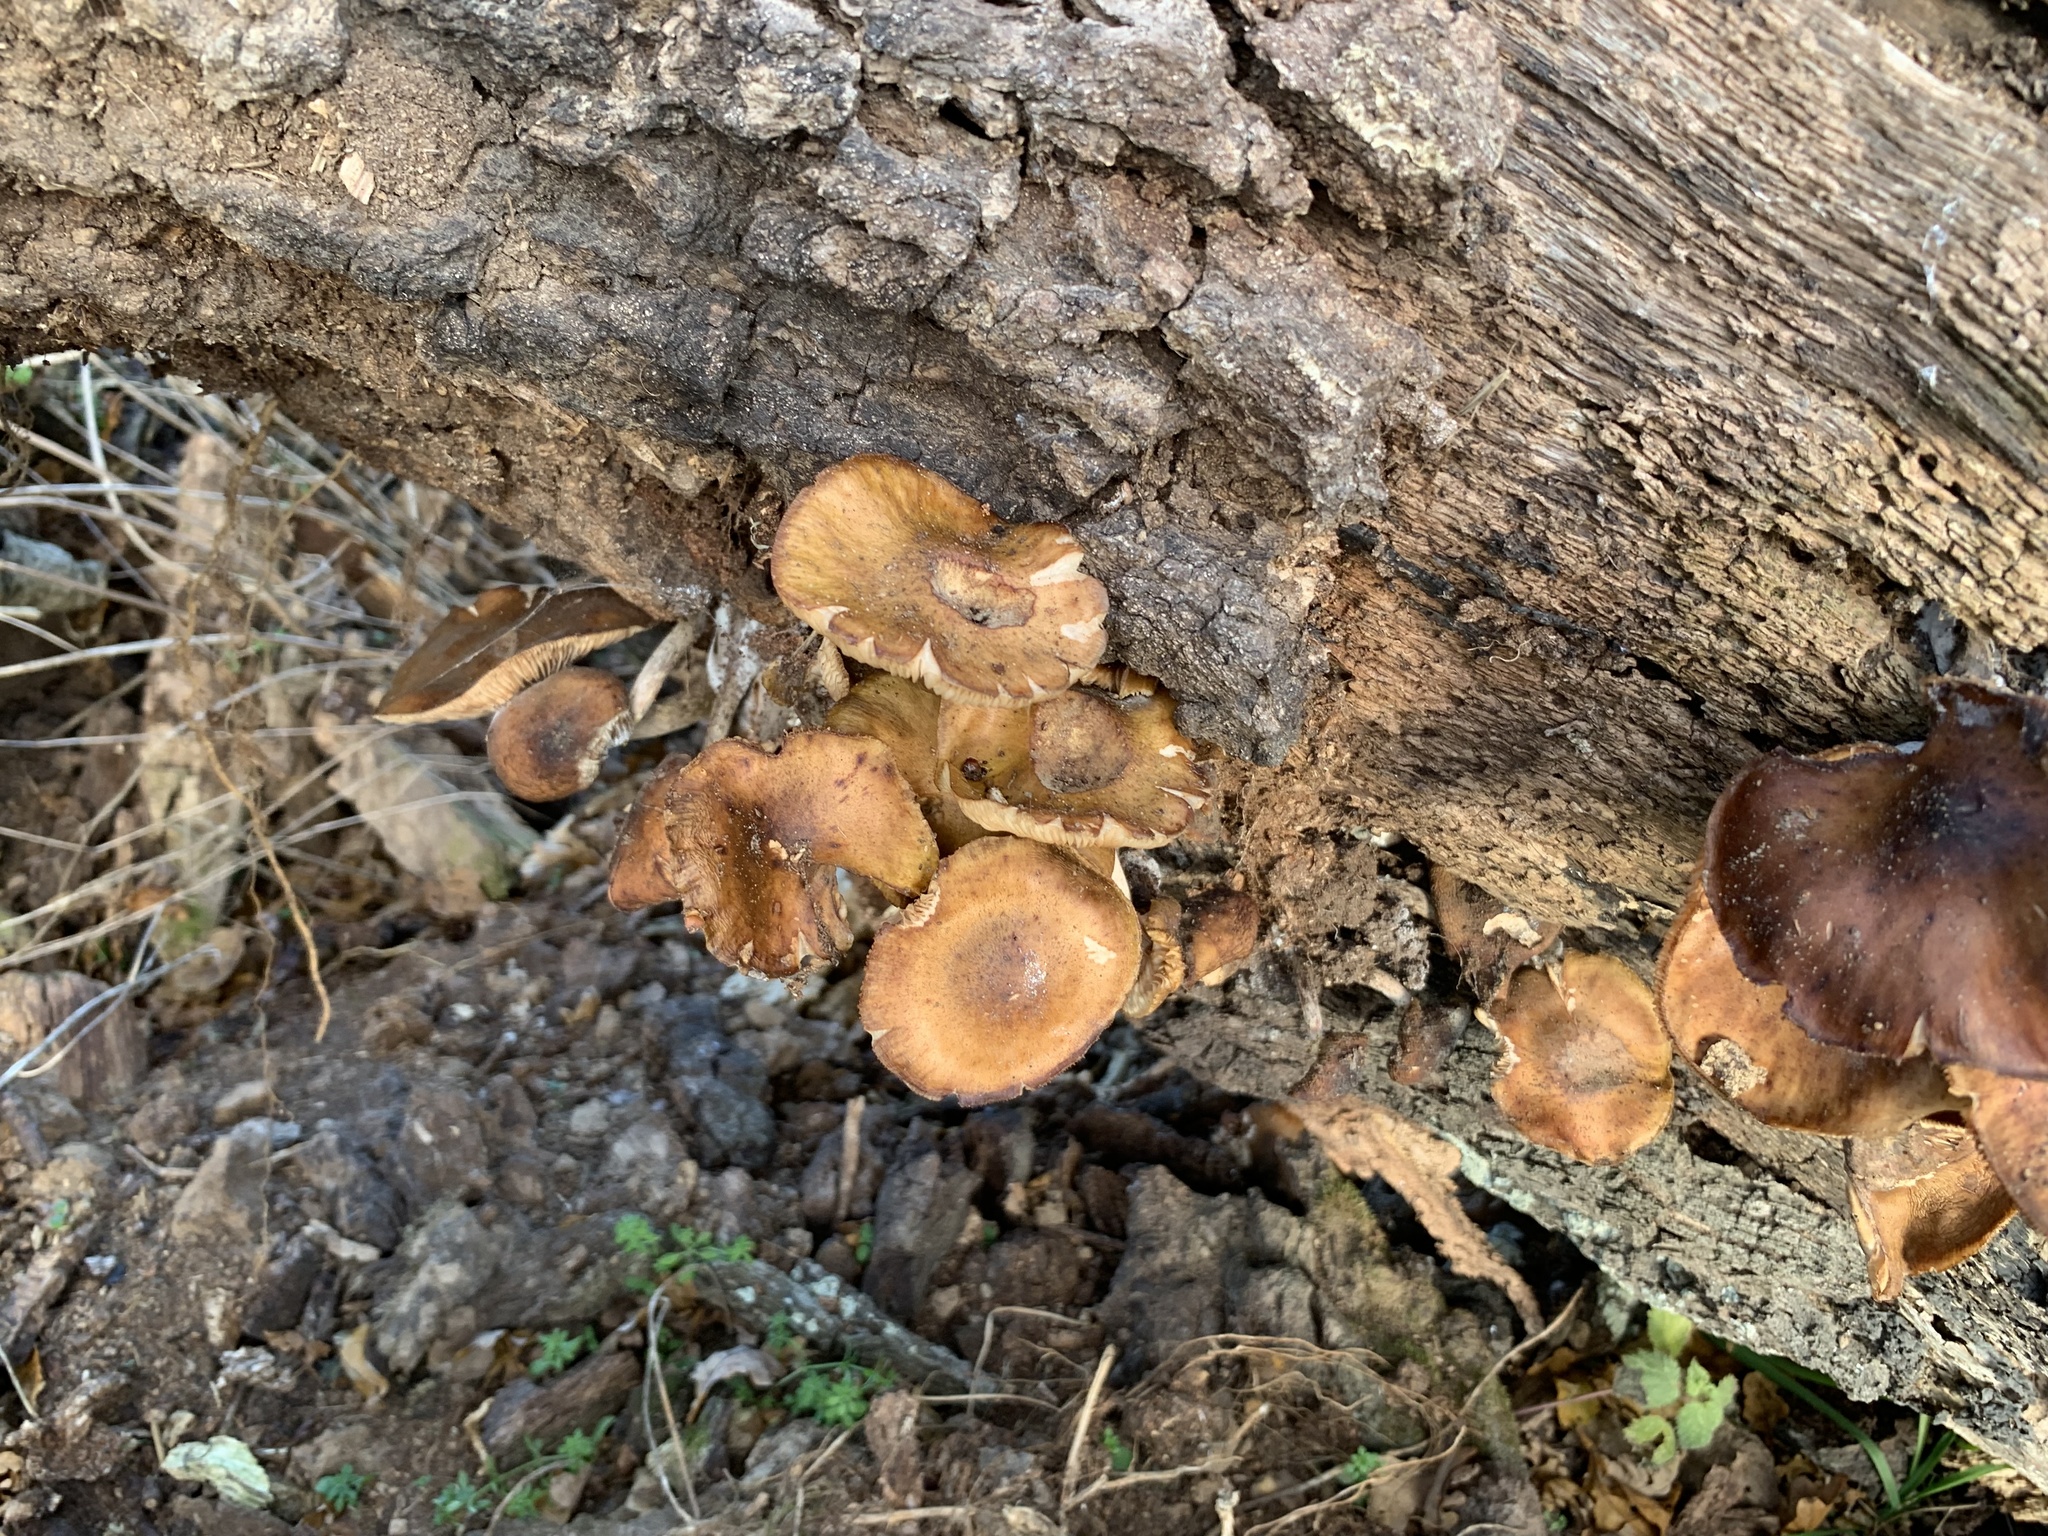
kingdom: Fungi
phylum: Basidiomycota
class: Agaricomycetes
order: Agaricales
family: Physalacriaceae
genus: Armillaria
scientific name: Armillaria mellea
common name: Honey fungus
